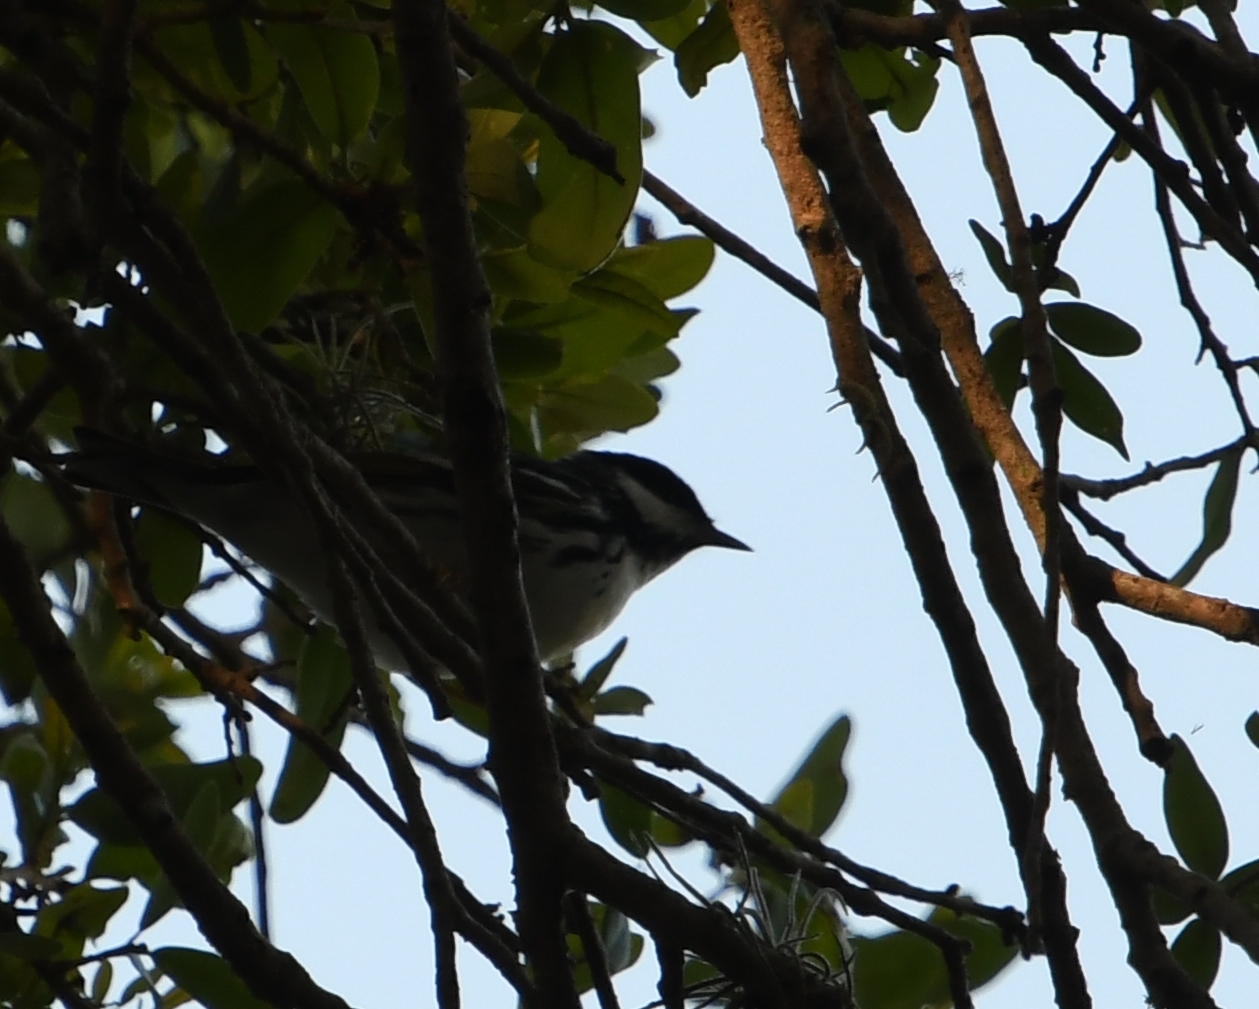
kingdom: Animalia
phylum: Chordata
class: Aves
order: Passeriformes
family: Parulidae
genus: Setophaga
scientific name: Setophaga striata
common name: Blackpoll warbler
